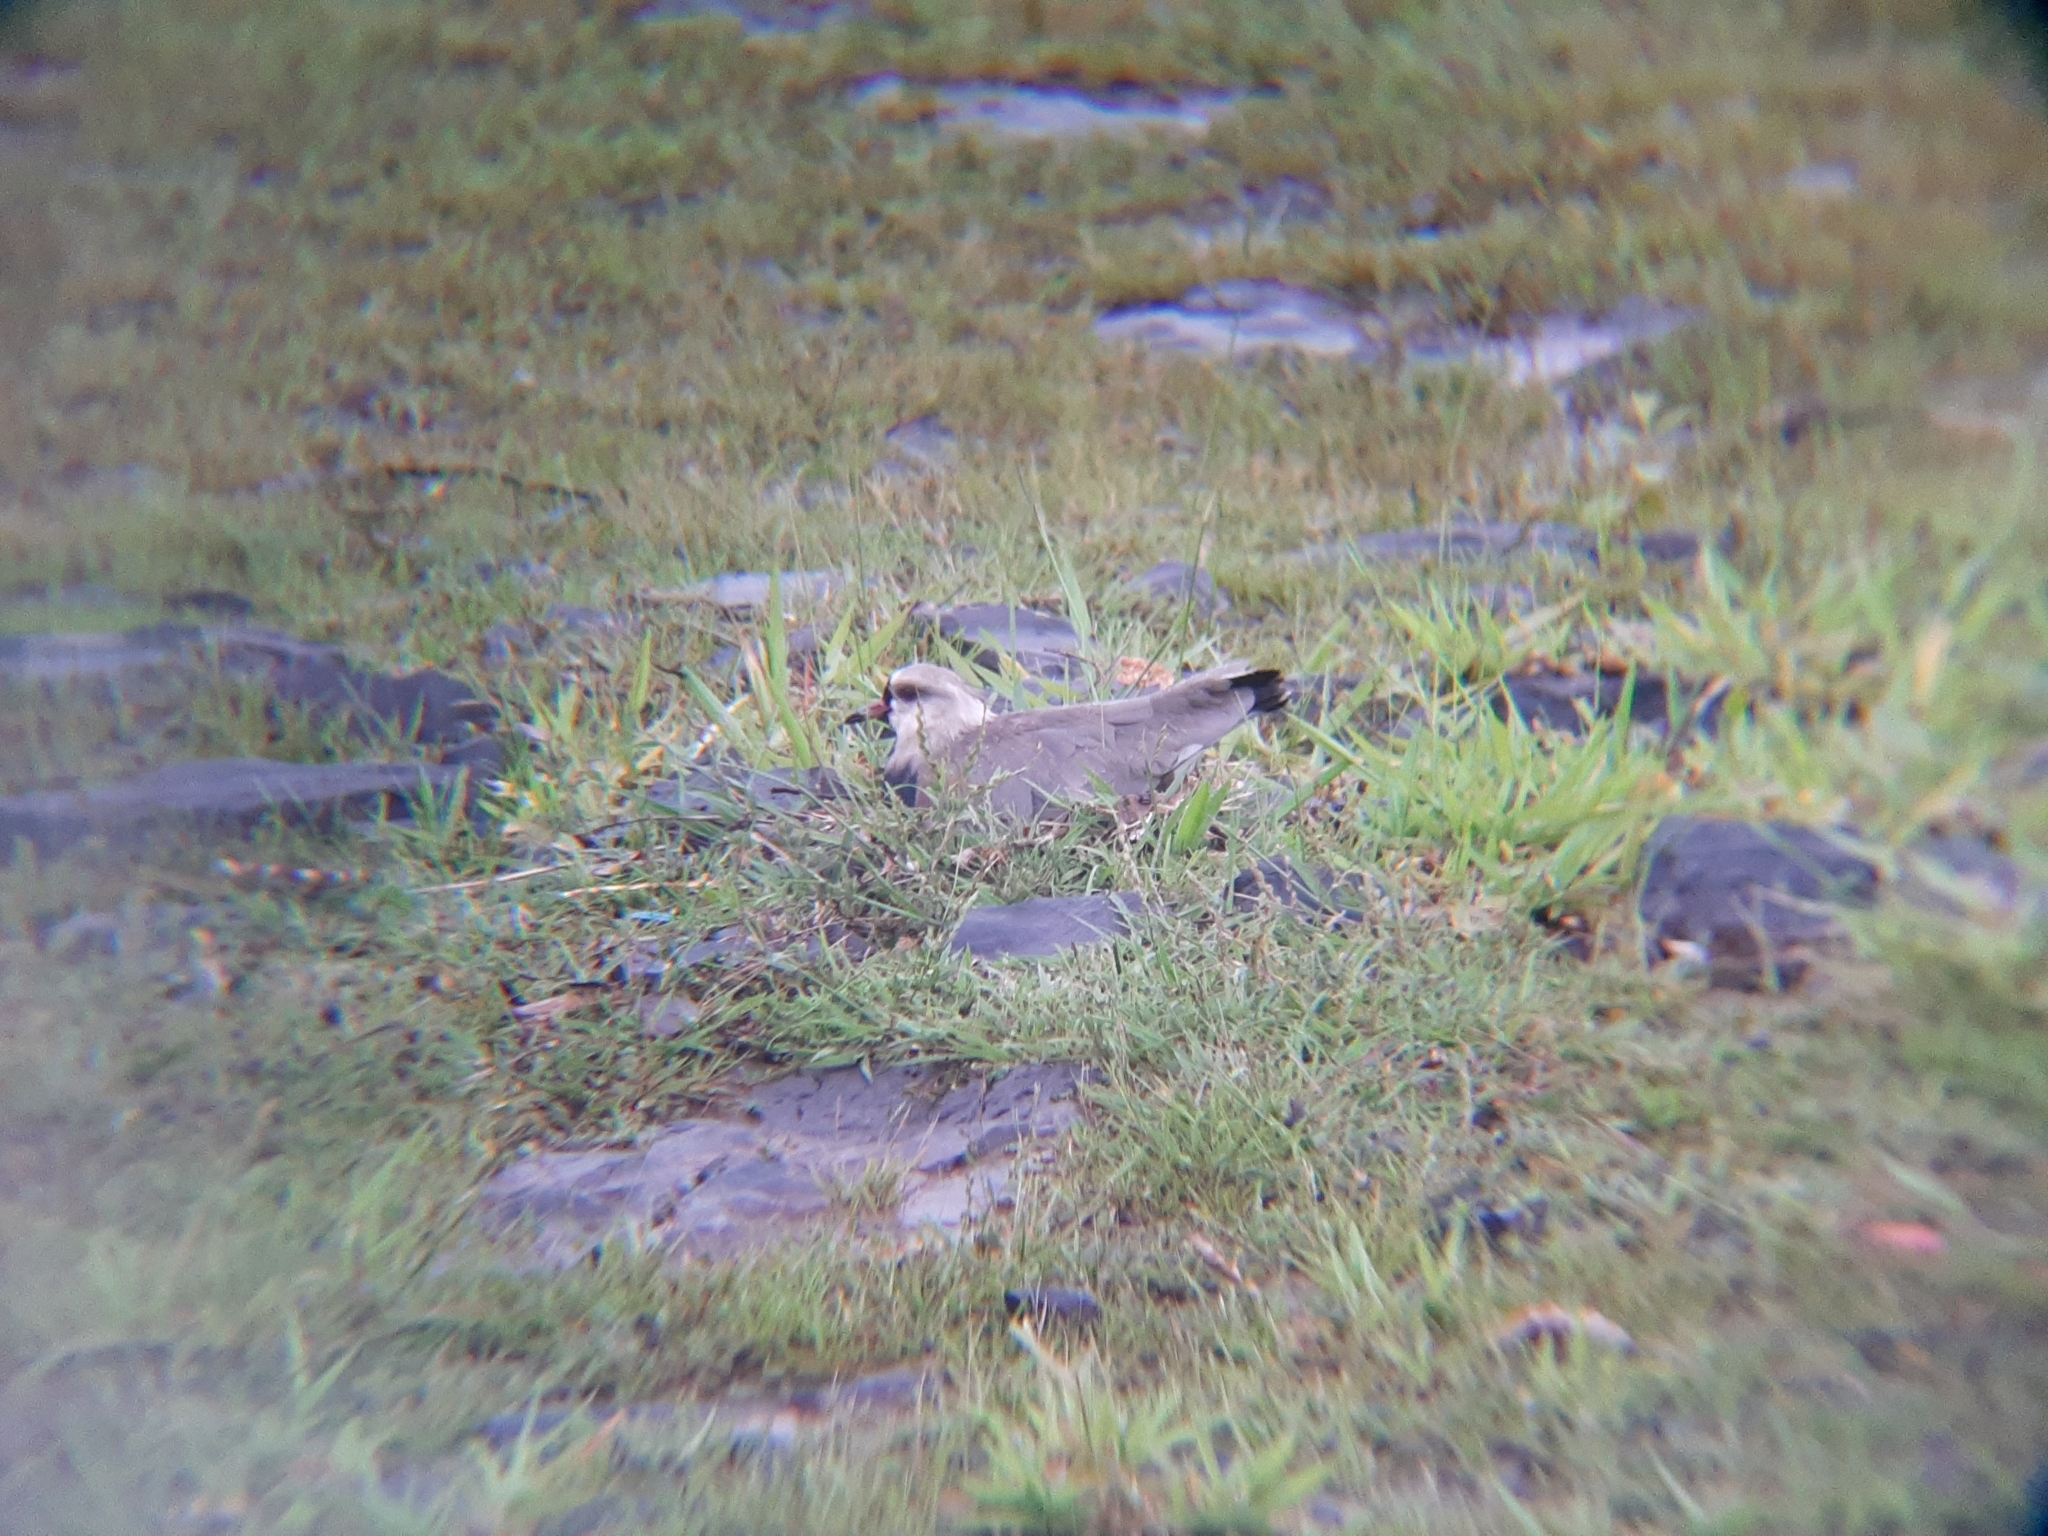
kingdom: Animalia
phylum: Chordata
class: Aves
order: Charadriiformes
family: Charadriidae
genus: Vanellus
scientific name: Vanellus chilensis
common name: Southern lapwing
